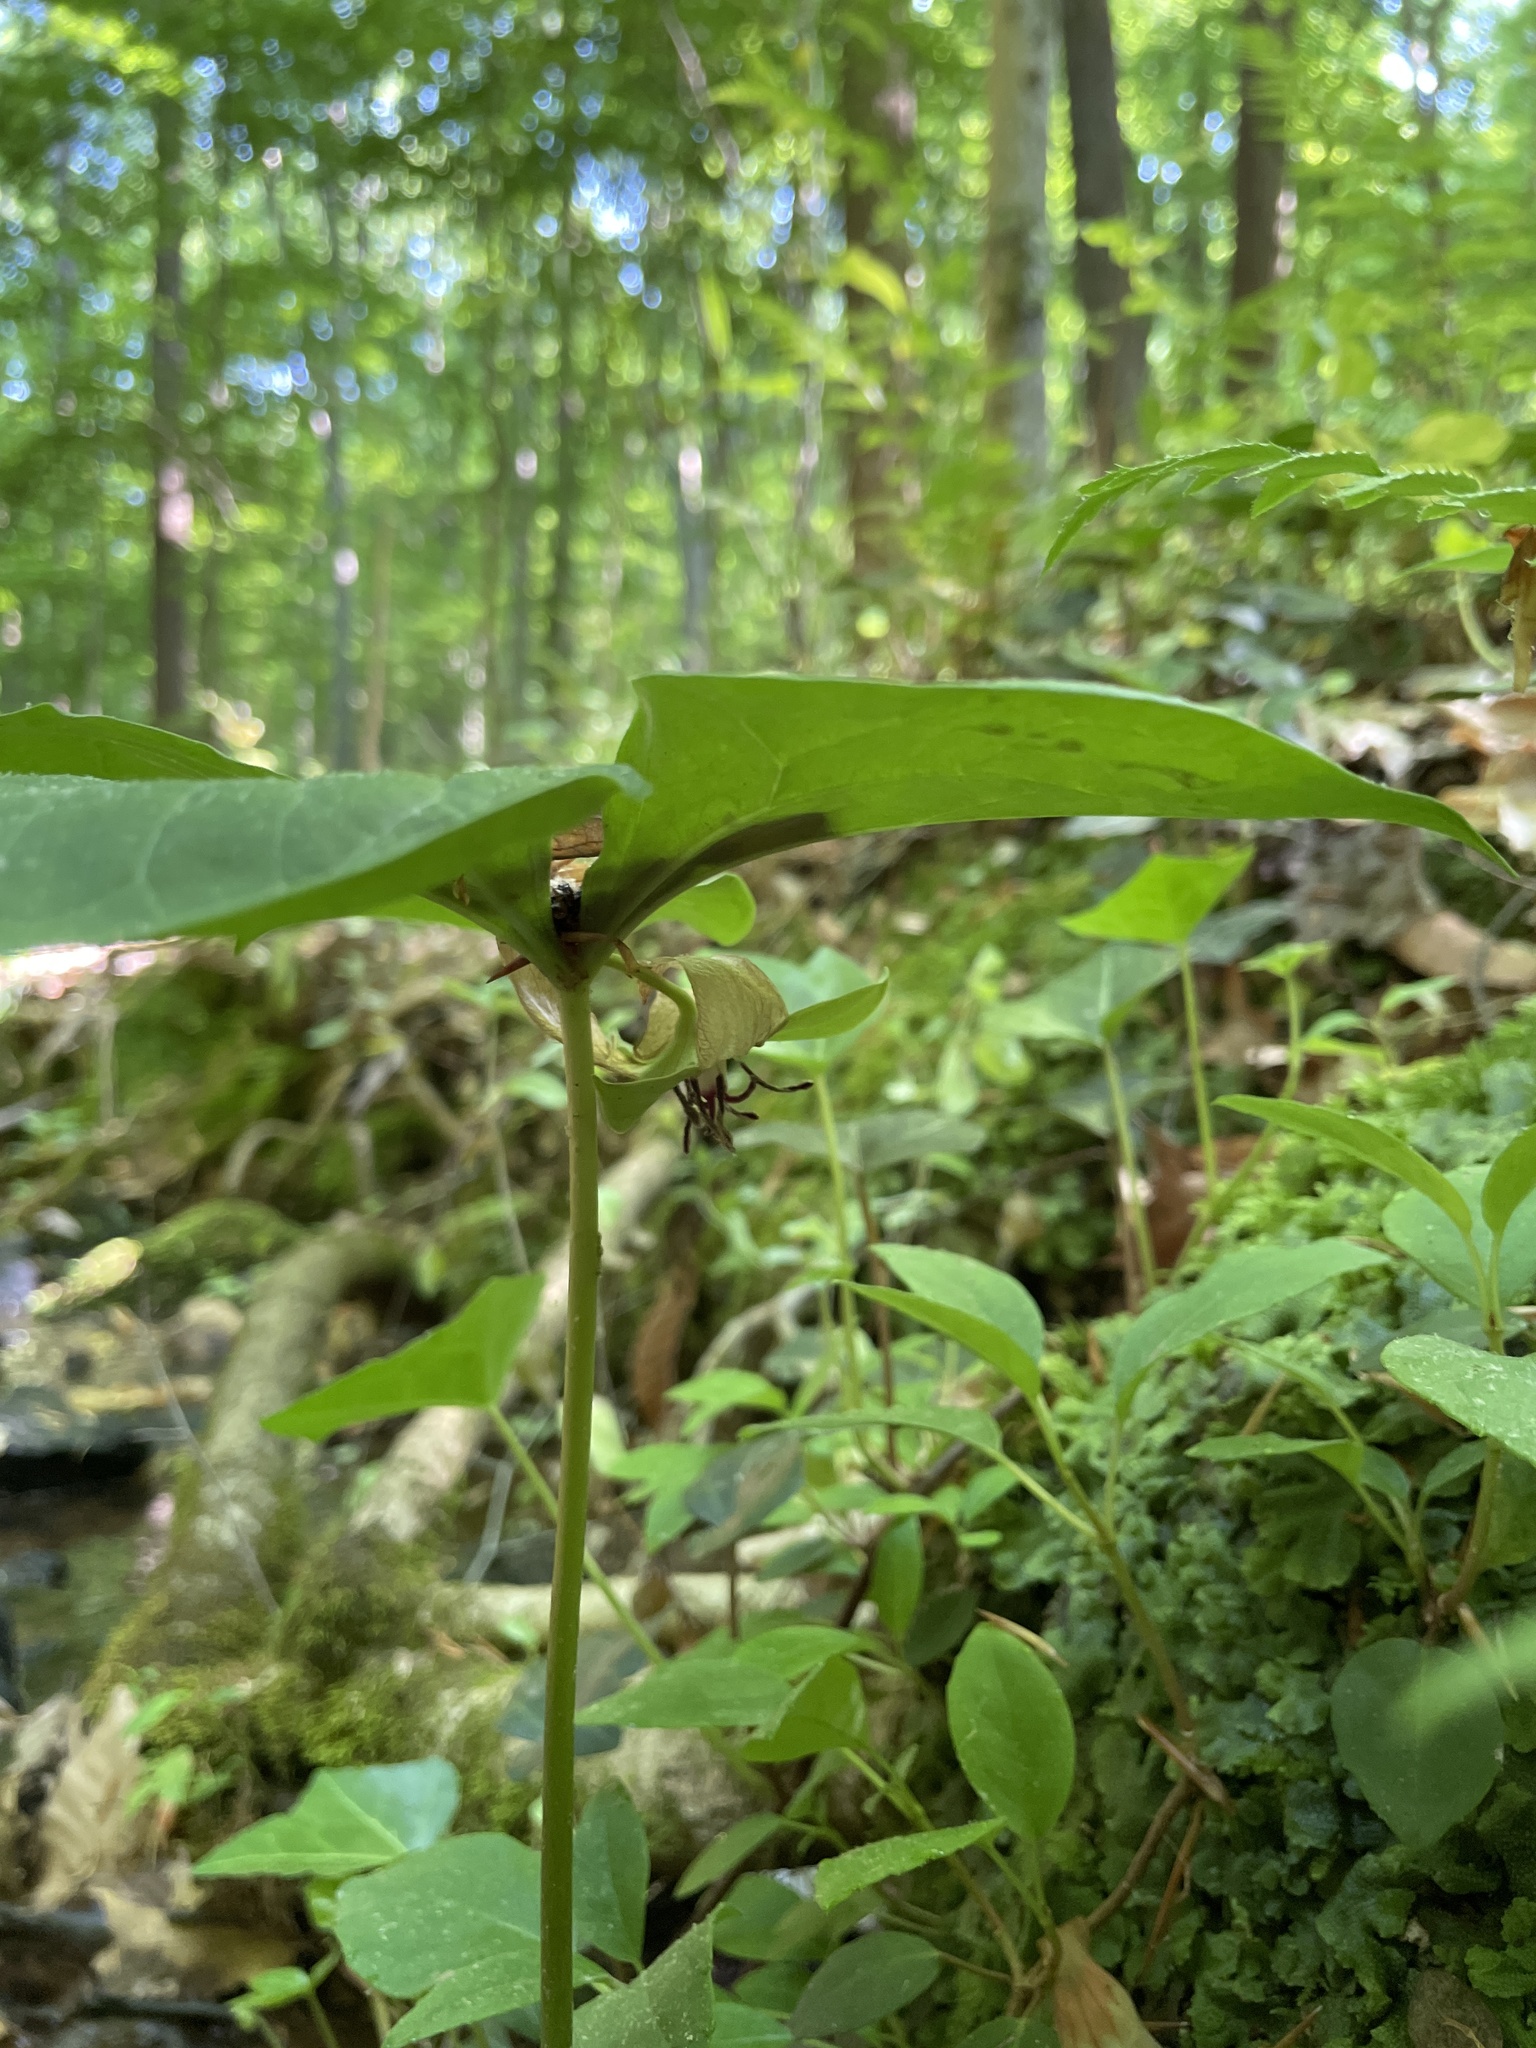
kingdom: Plantae
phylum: Tracheophyta
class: Liliopsida
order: Liliales
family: Melanthiaceae
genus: Trillium
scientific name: Trillium rugelii
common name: Ill-scented trillium
